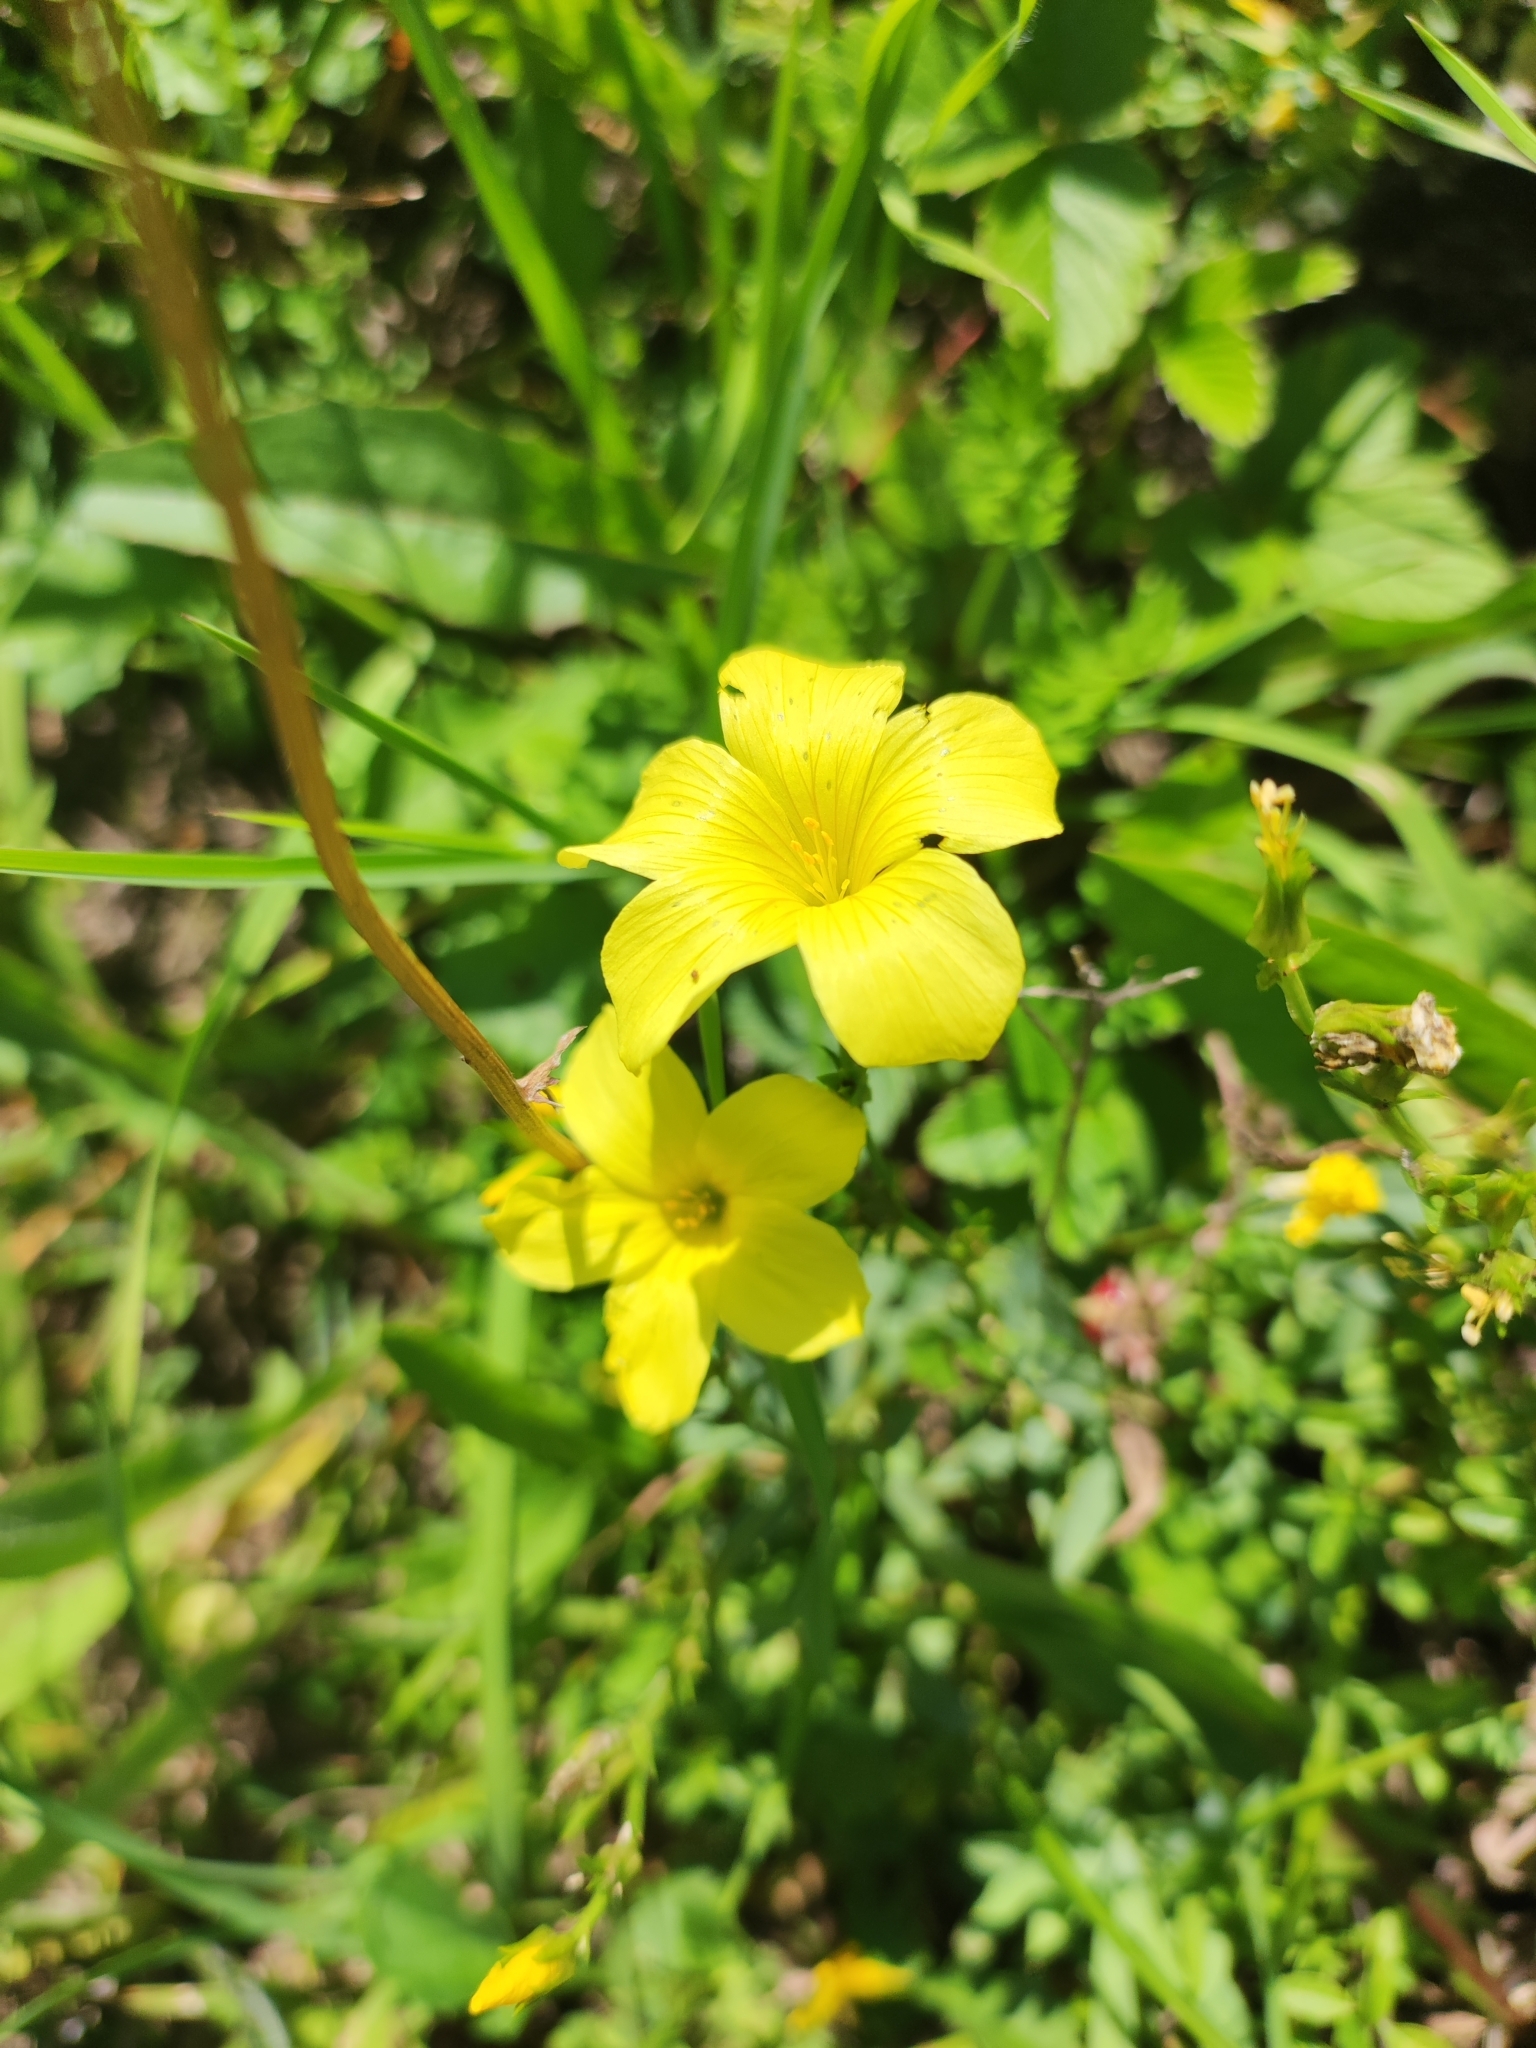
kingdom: Plantae
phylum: Tracheophyta
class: Magnoliopsida
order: Malvales
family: Cistaceae
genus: Helianthemum
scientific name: Helianthemum nummularium
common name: Common rock-rose
